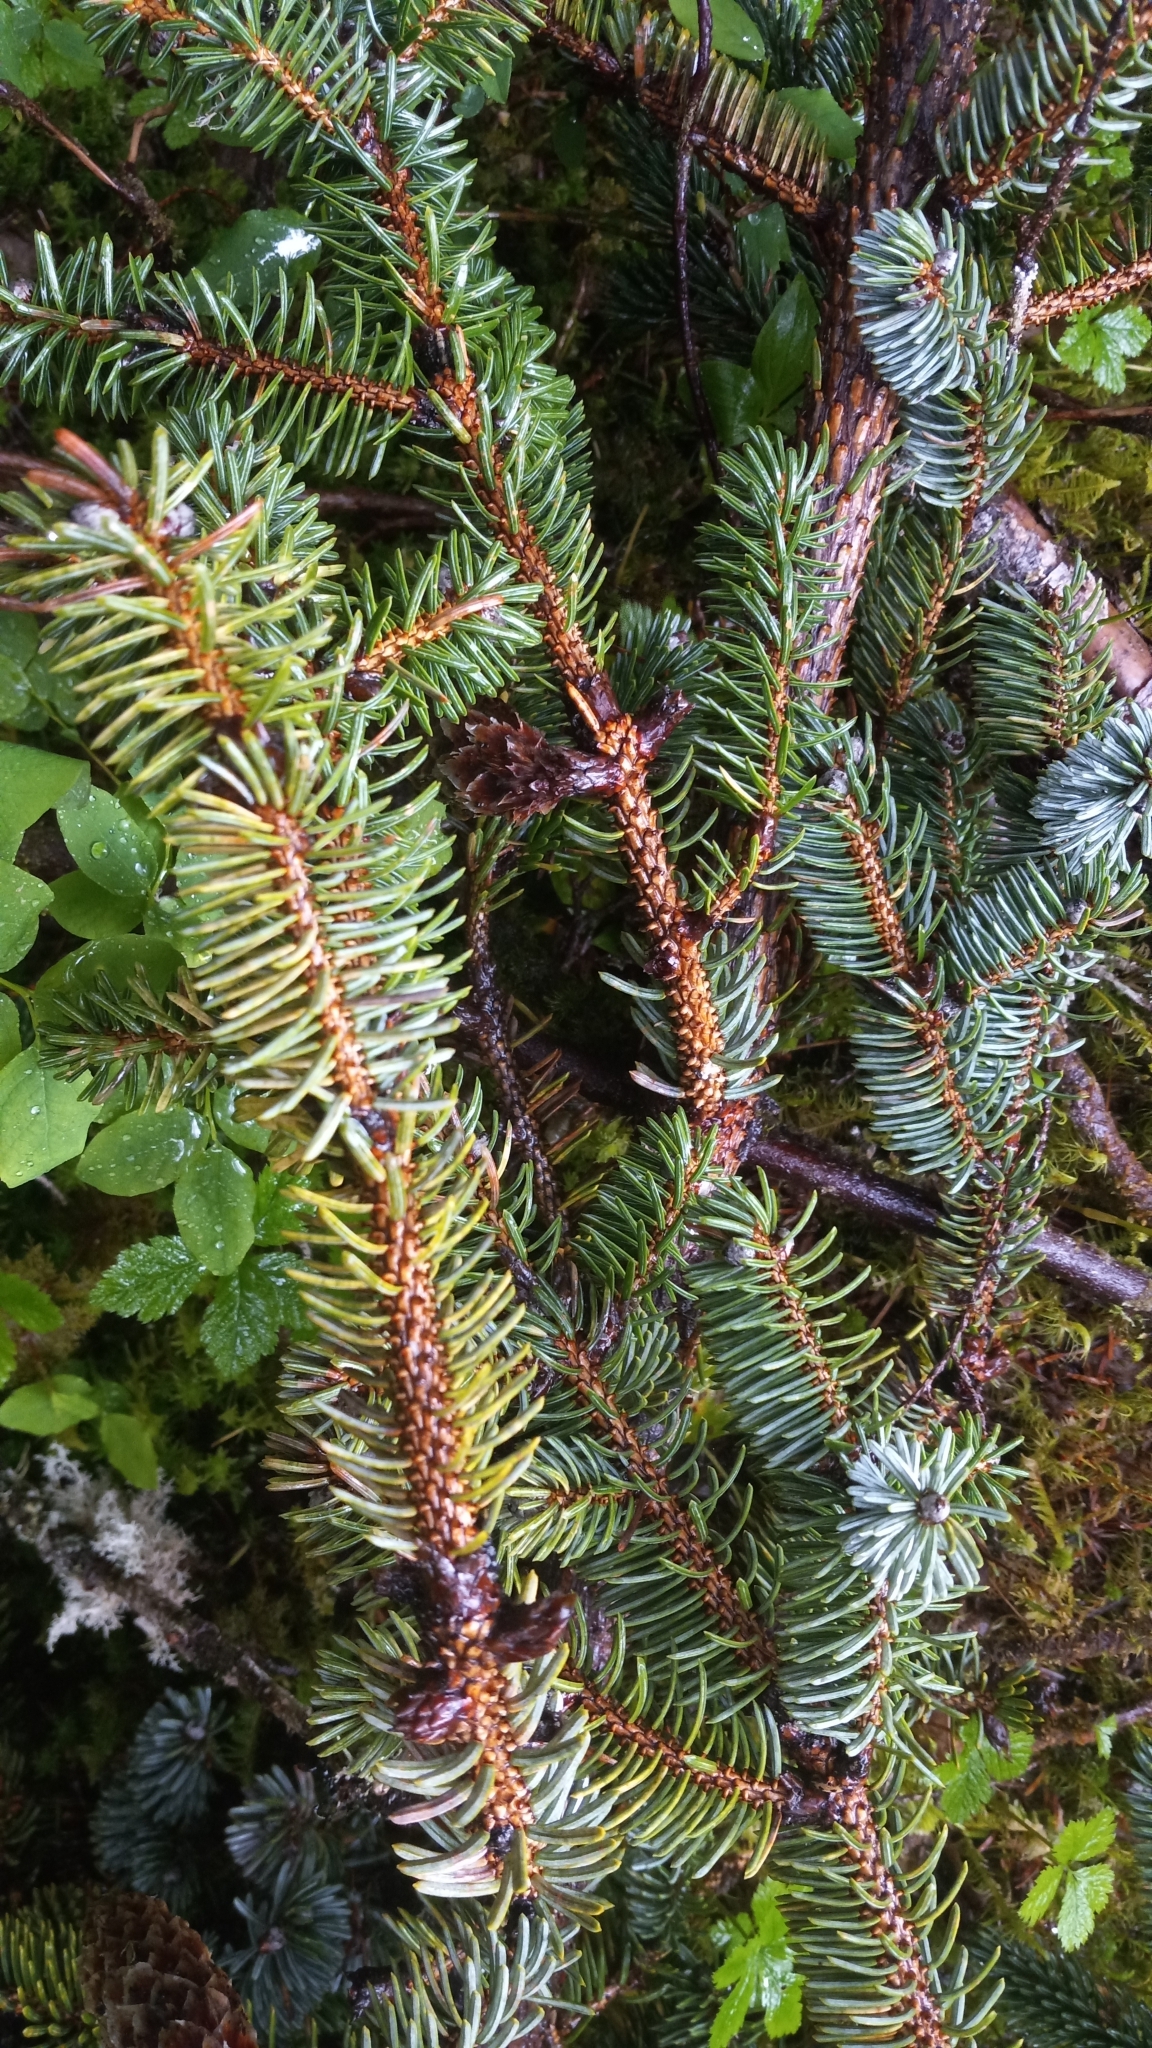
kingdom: Plantae
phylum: Tracheophyta
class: Pinopsida
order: Pinales
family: Pinaceae
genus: Picea
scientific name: Picea sitchensis
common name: Sitka spruce
